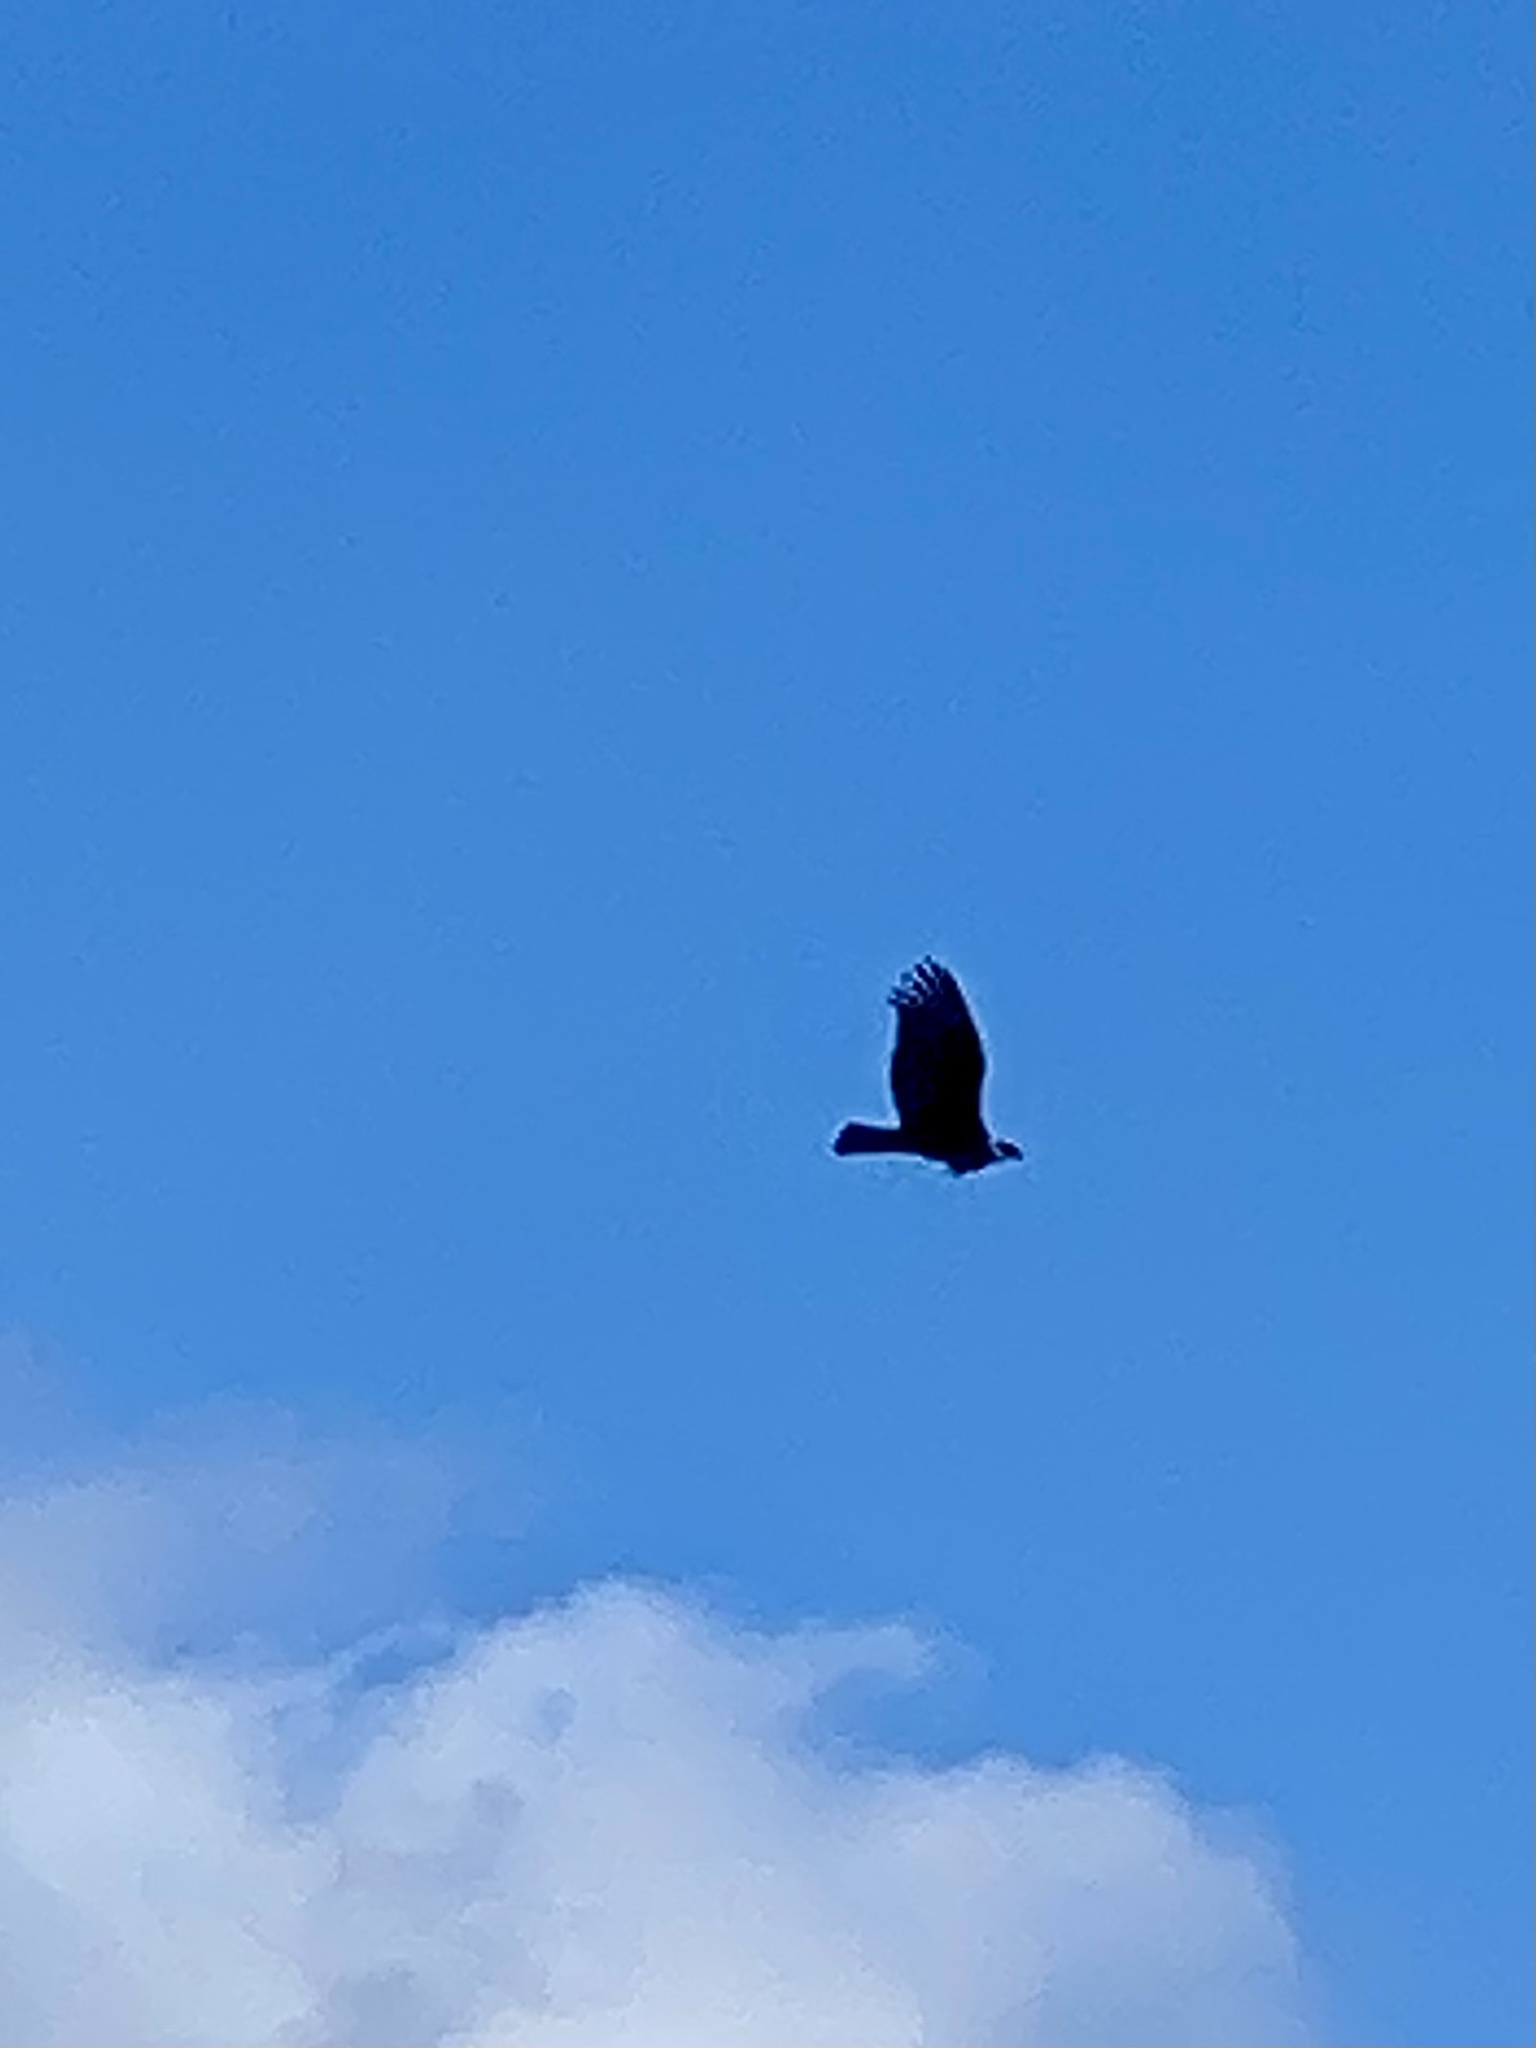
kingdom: Animalia
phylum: Chordata
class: Aves
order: Accipitriformes
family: Cathartidae
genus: Cathartes
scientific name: Cathartes aura
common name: Turkey vulture
